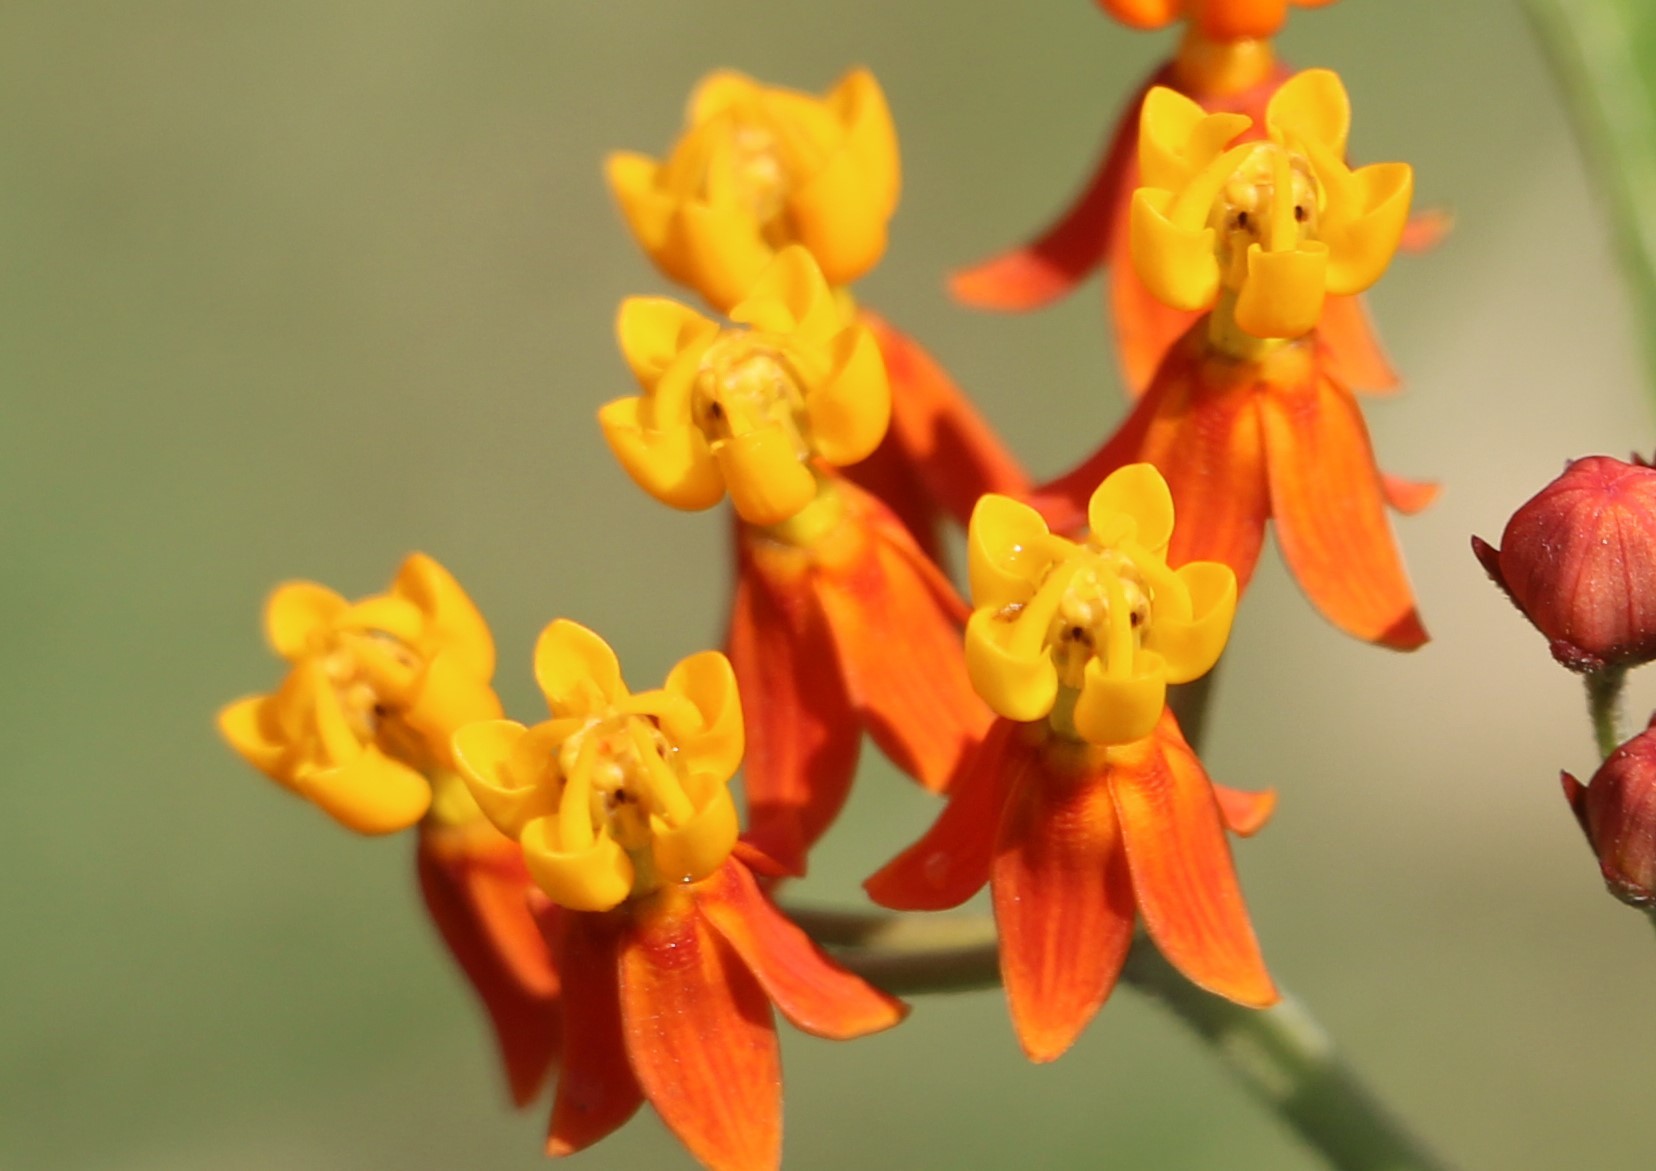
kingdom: Plantae
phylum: Tracheophyta
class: Magnoliopsida
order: Gentianales
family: Apocynaceae
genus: Asclepias
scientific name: Asclepias curassavica
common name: Bloodflower
